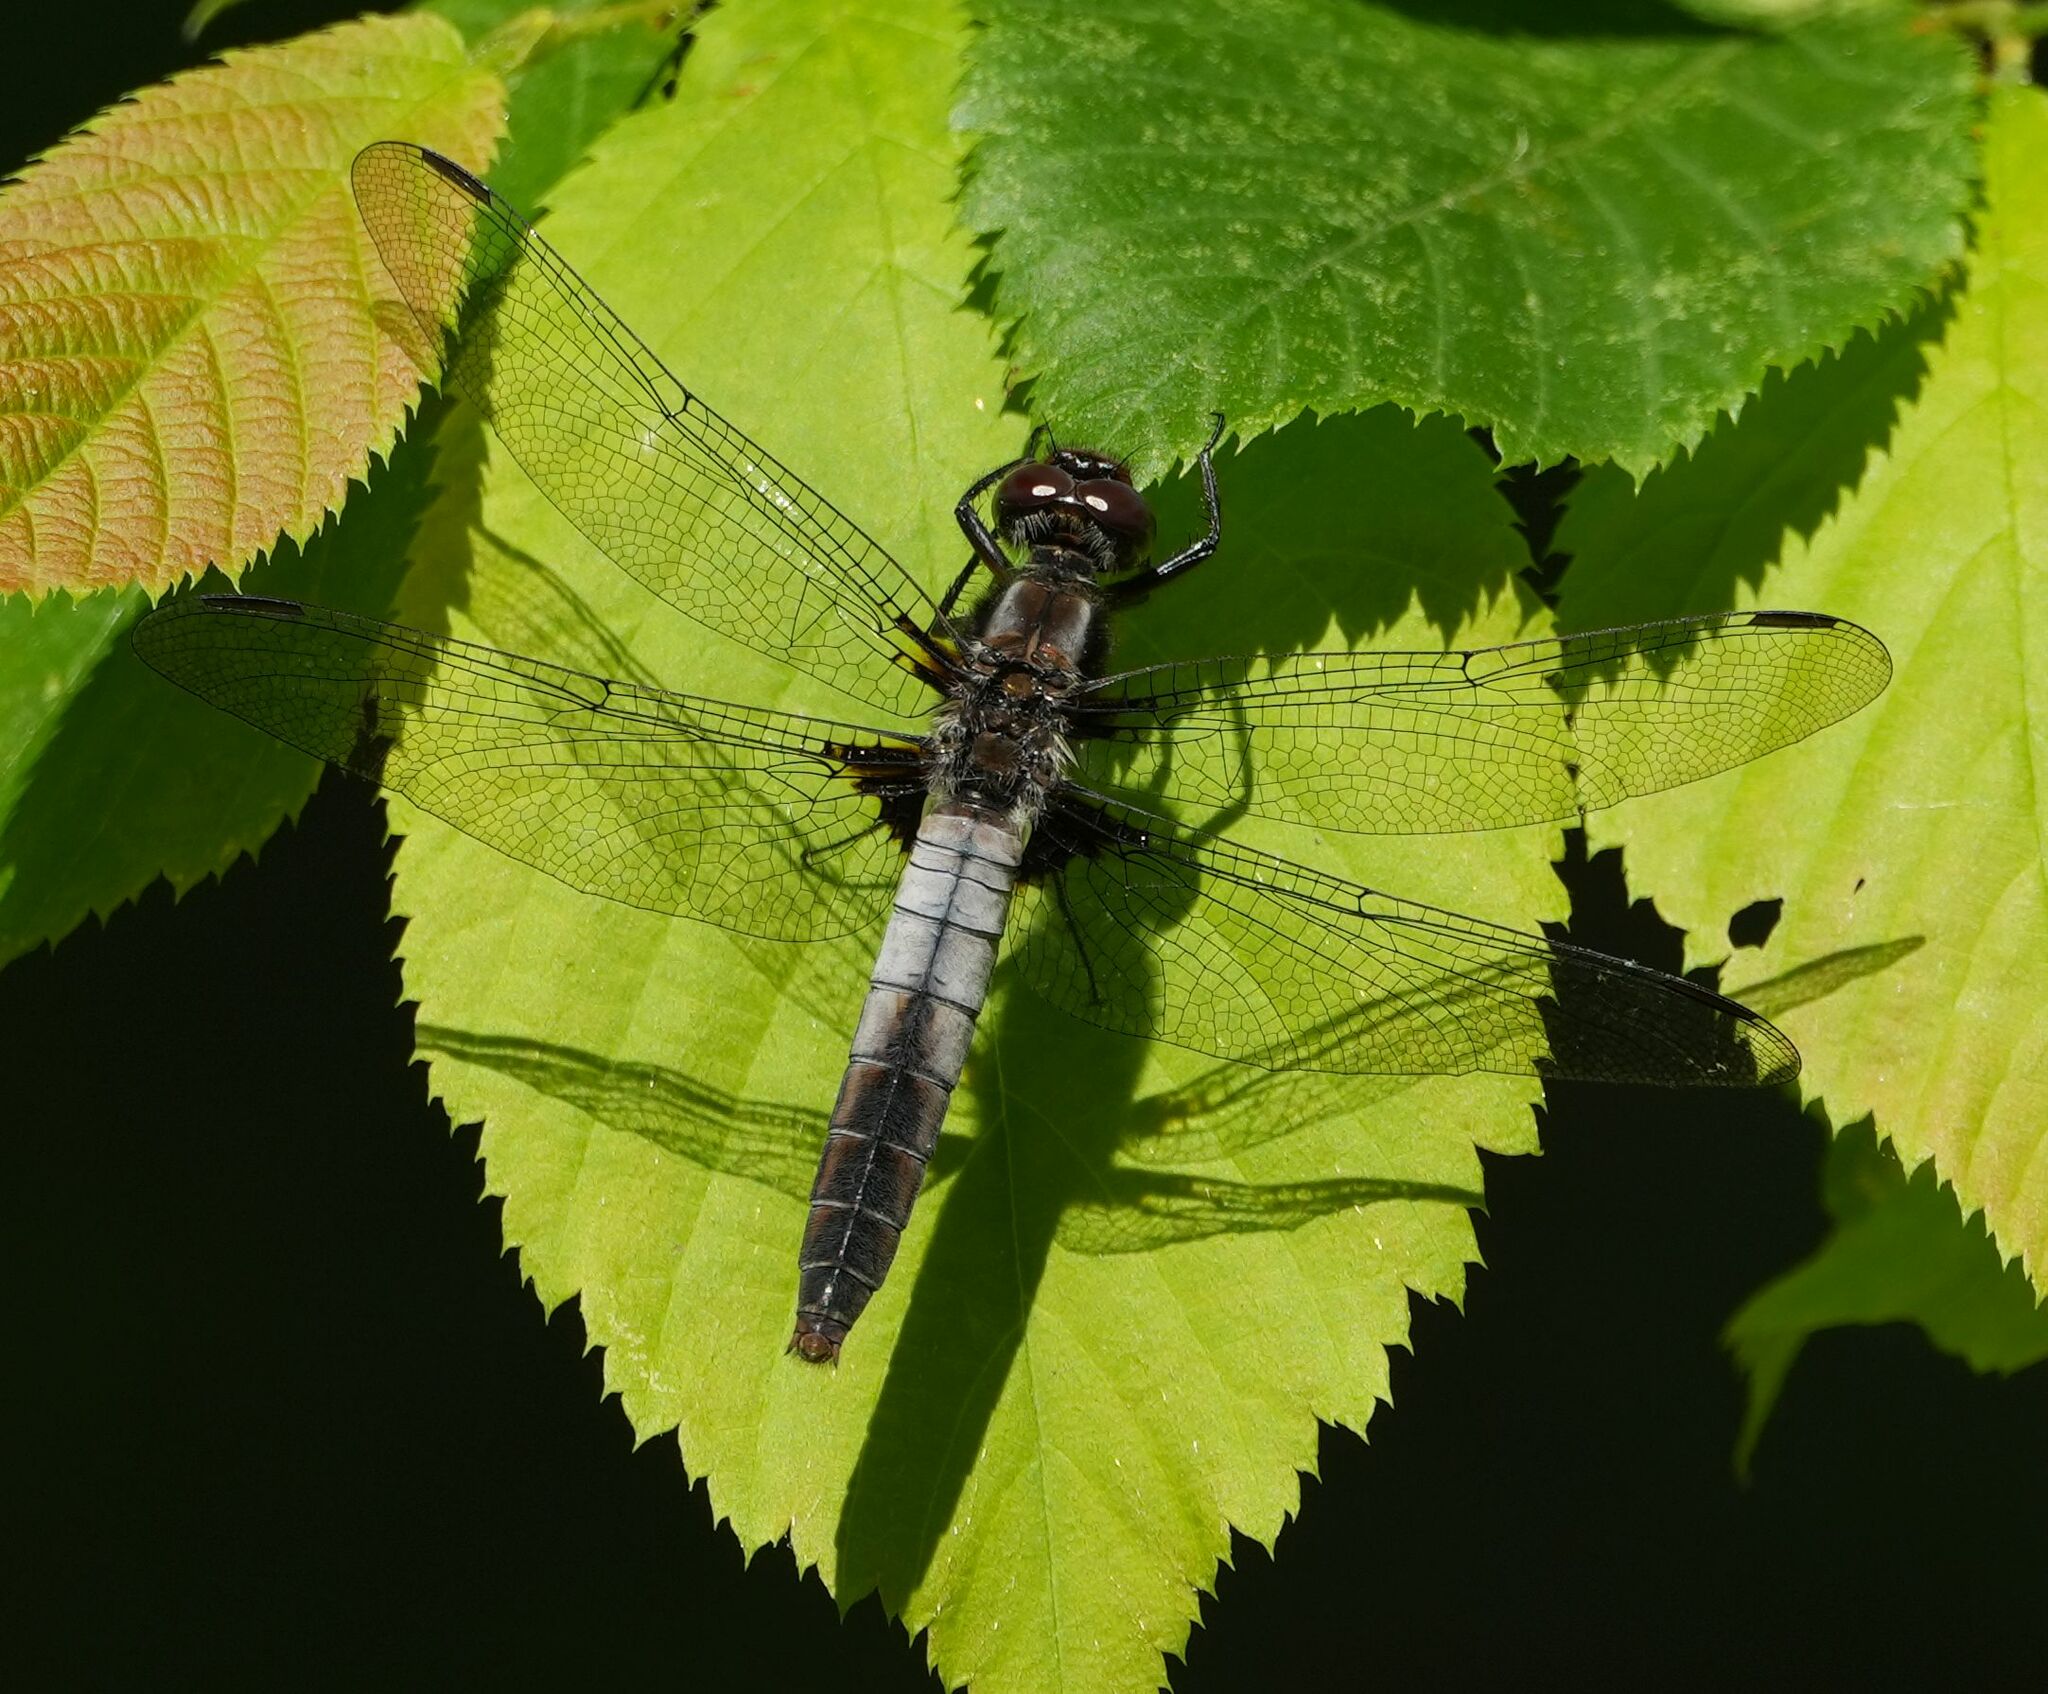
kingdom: Animalia
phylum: Arthropoda
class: Insecta
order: Odonata
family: Libellulidae
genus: Ladona
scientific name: Ladona julia
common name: Chalk-fronted corporal
